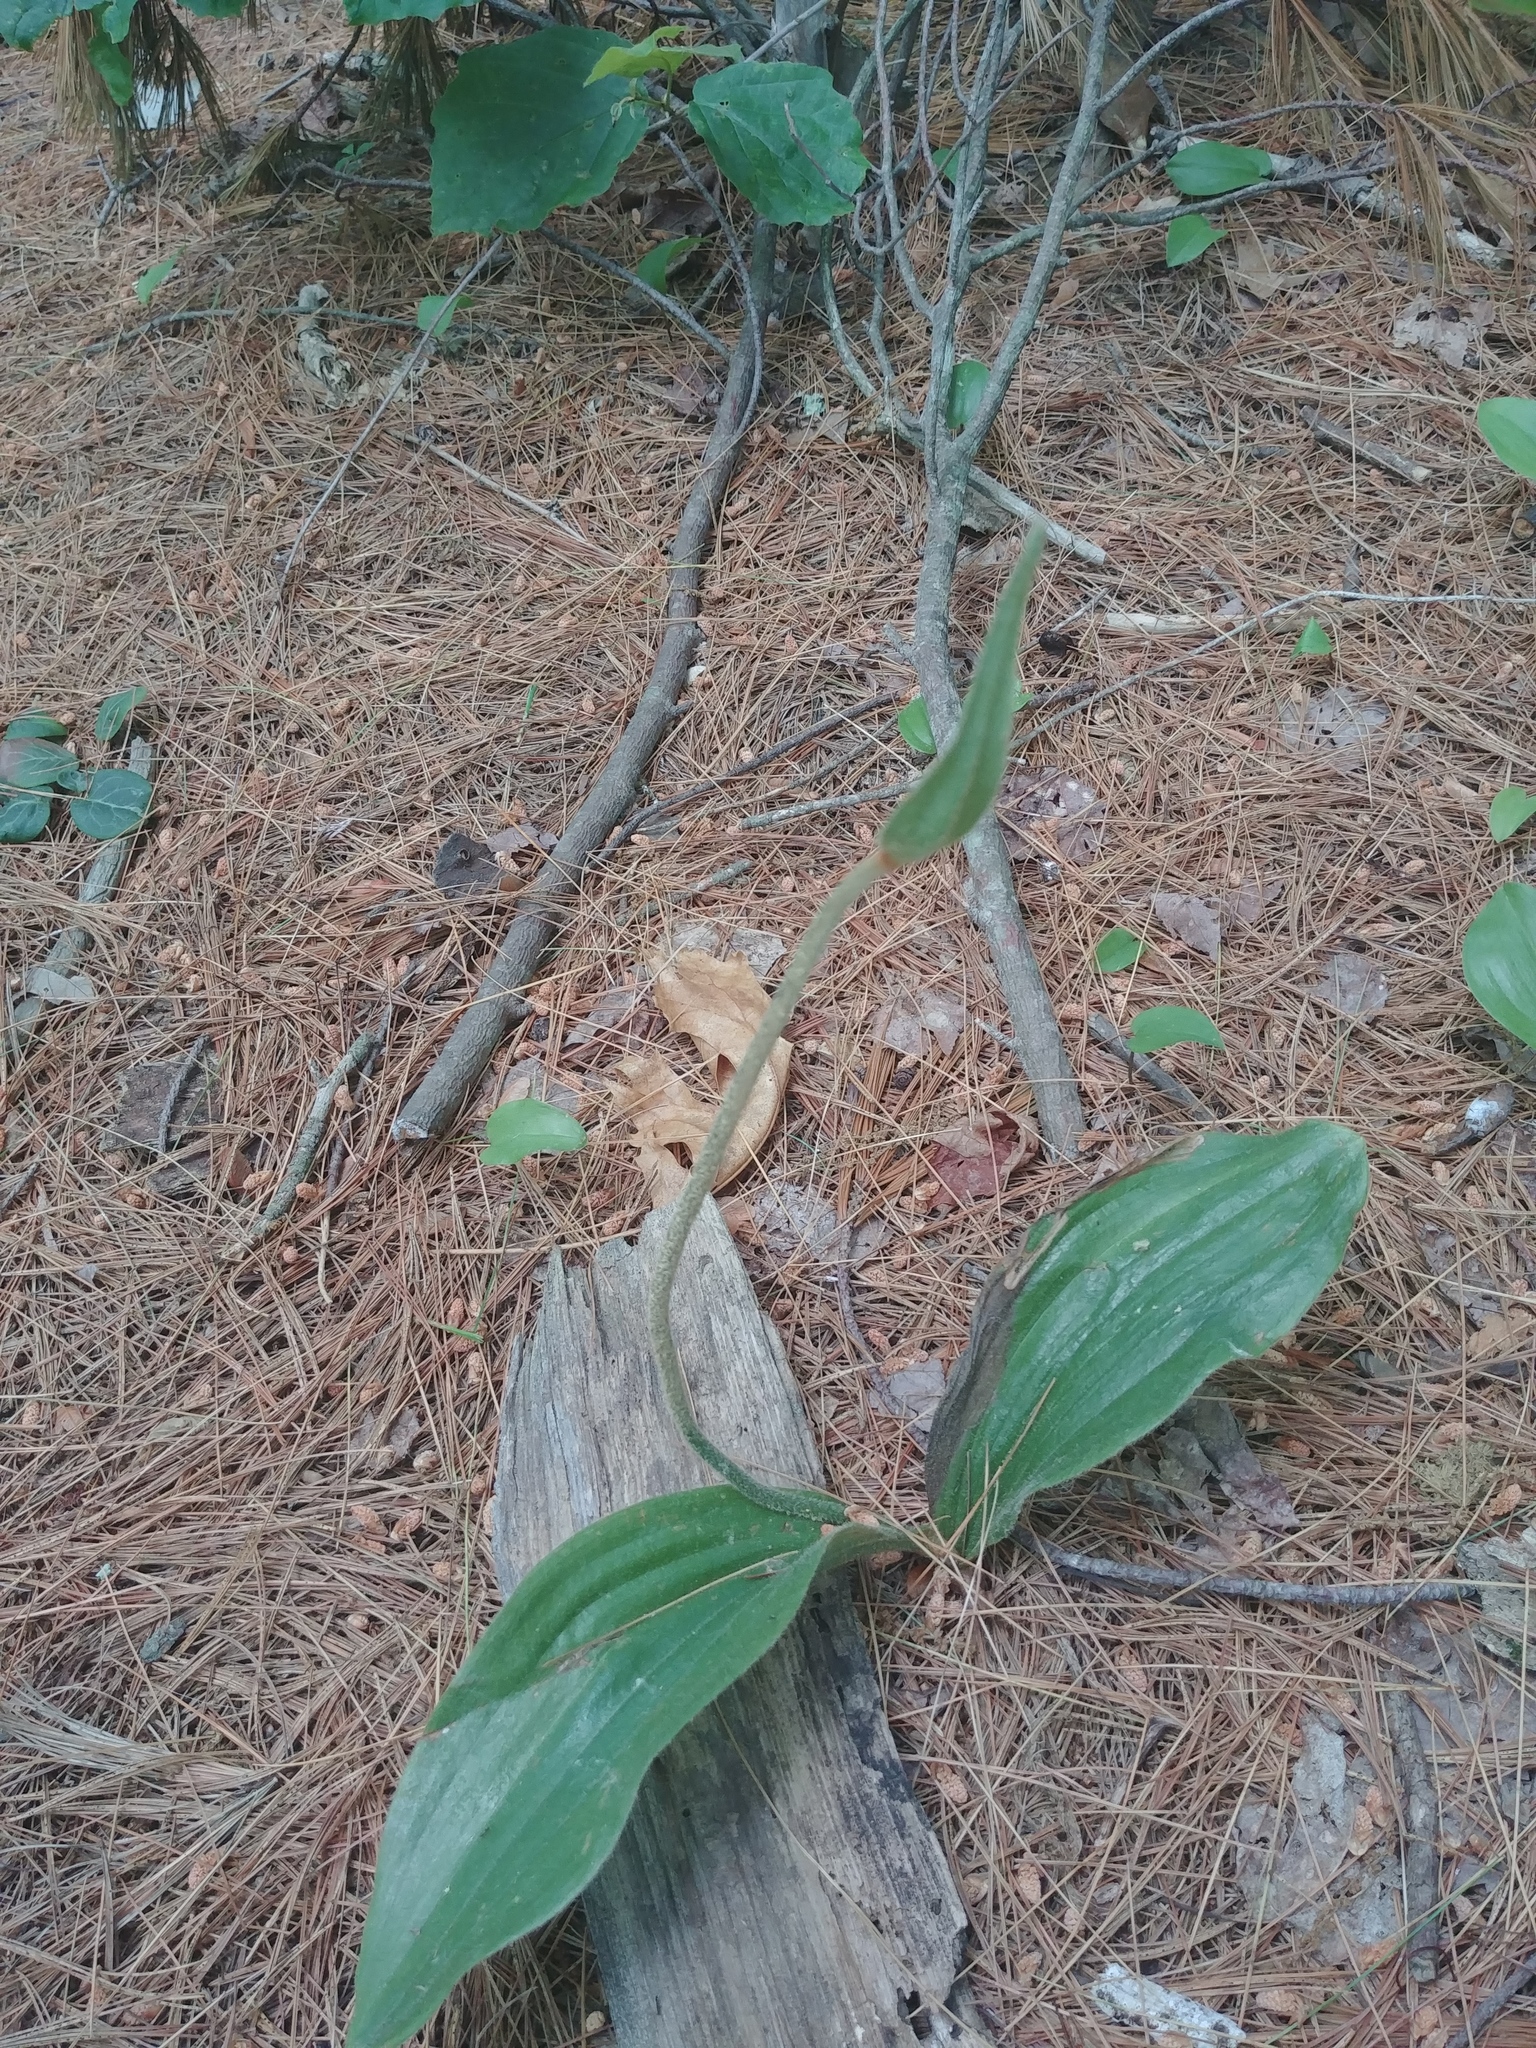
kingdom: Plantae
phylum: Tracheophyta
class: Liliopsida
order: Asparagales
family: Orchidaceae
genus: Cypripedium
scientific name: Cypripedium acaule
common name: Pink lady's-slipper
